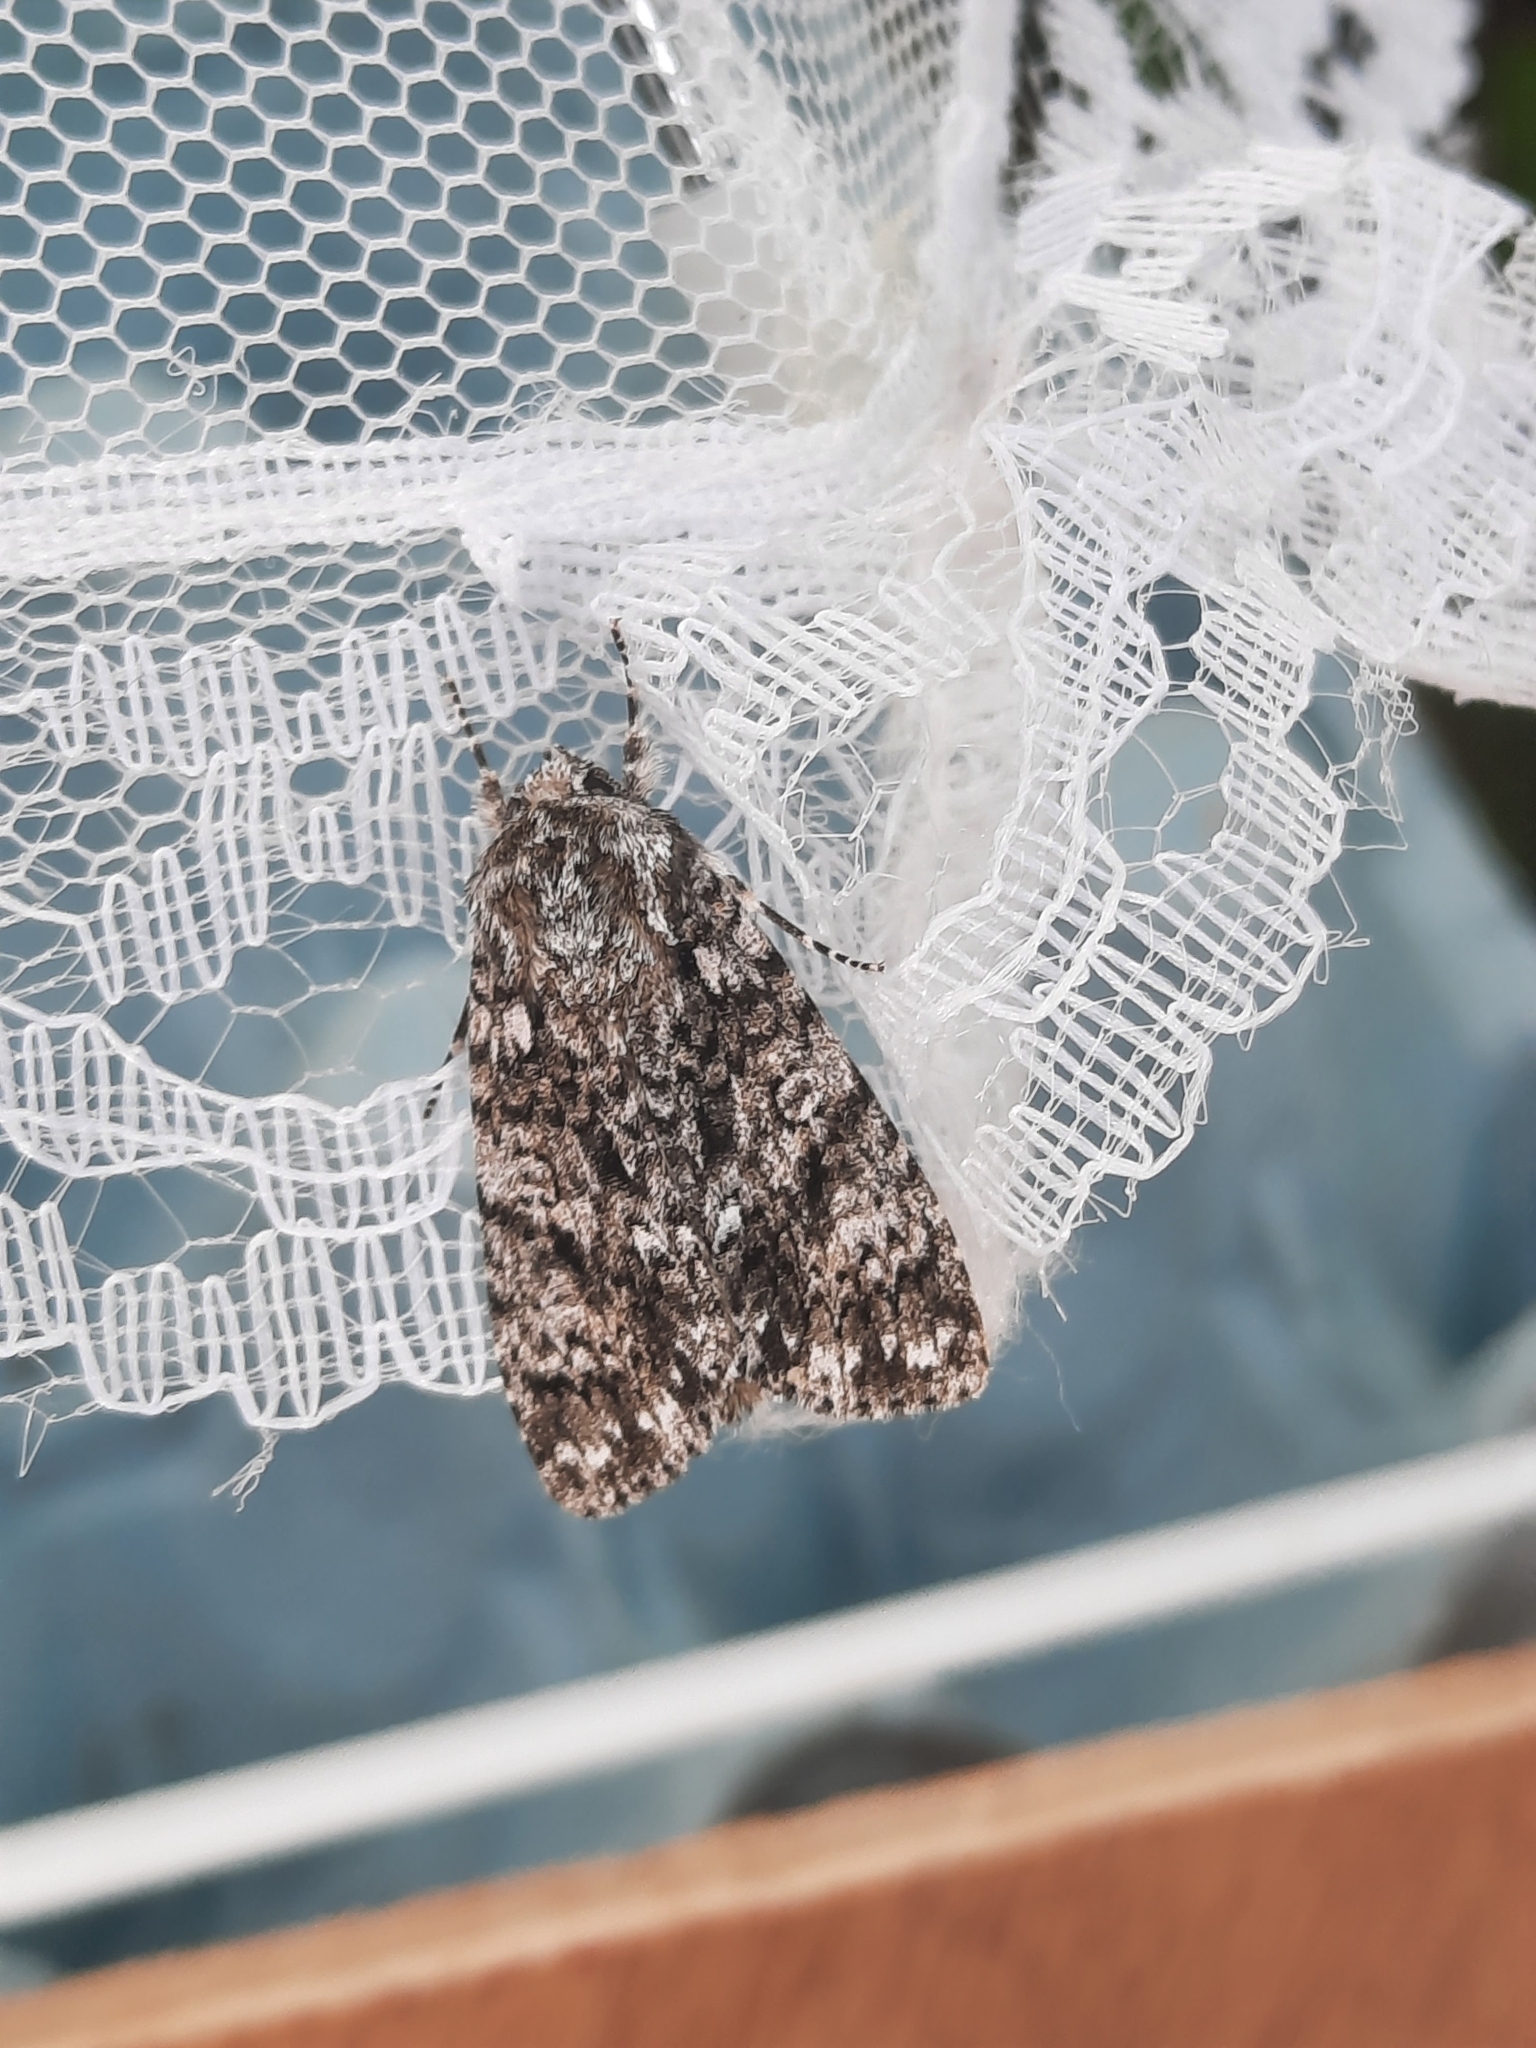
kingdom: Animalia
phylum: Arthropoda
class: Insecta
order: Lepidoptera
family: Noctuidae
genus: Acronicta
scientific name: Acronicta rumicis
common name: Knot grass
